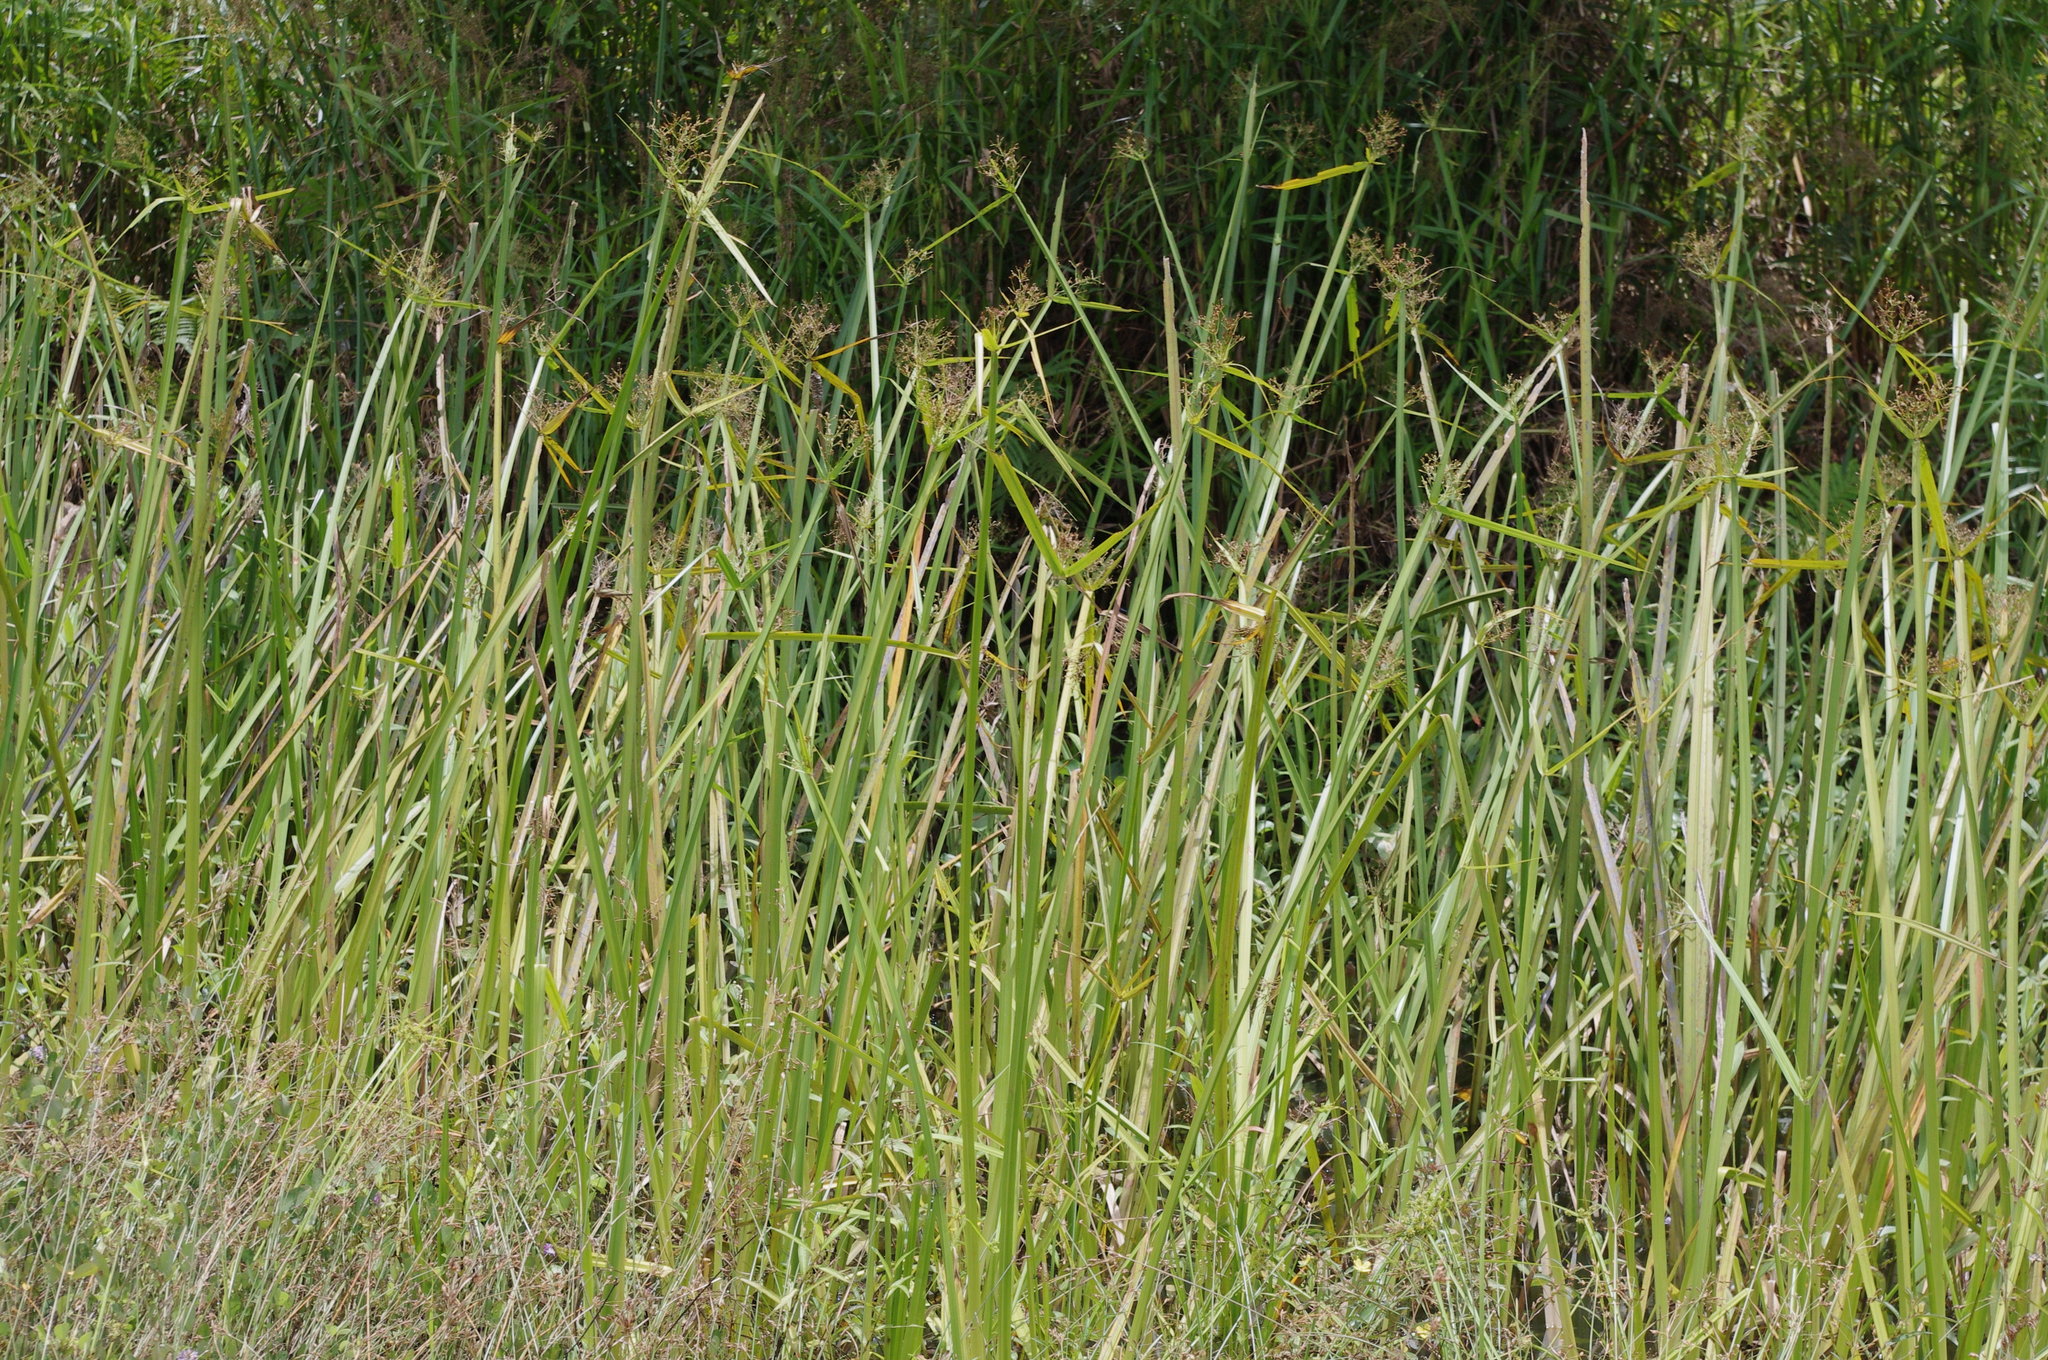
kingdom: Plantae
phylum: Tracheophyta
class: Liliopsida
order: Poales
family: Cyperaceae
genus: Actinoscirpus
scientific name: Actinoscirpus grossus
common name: Giant bur rush
